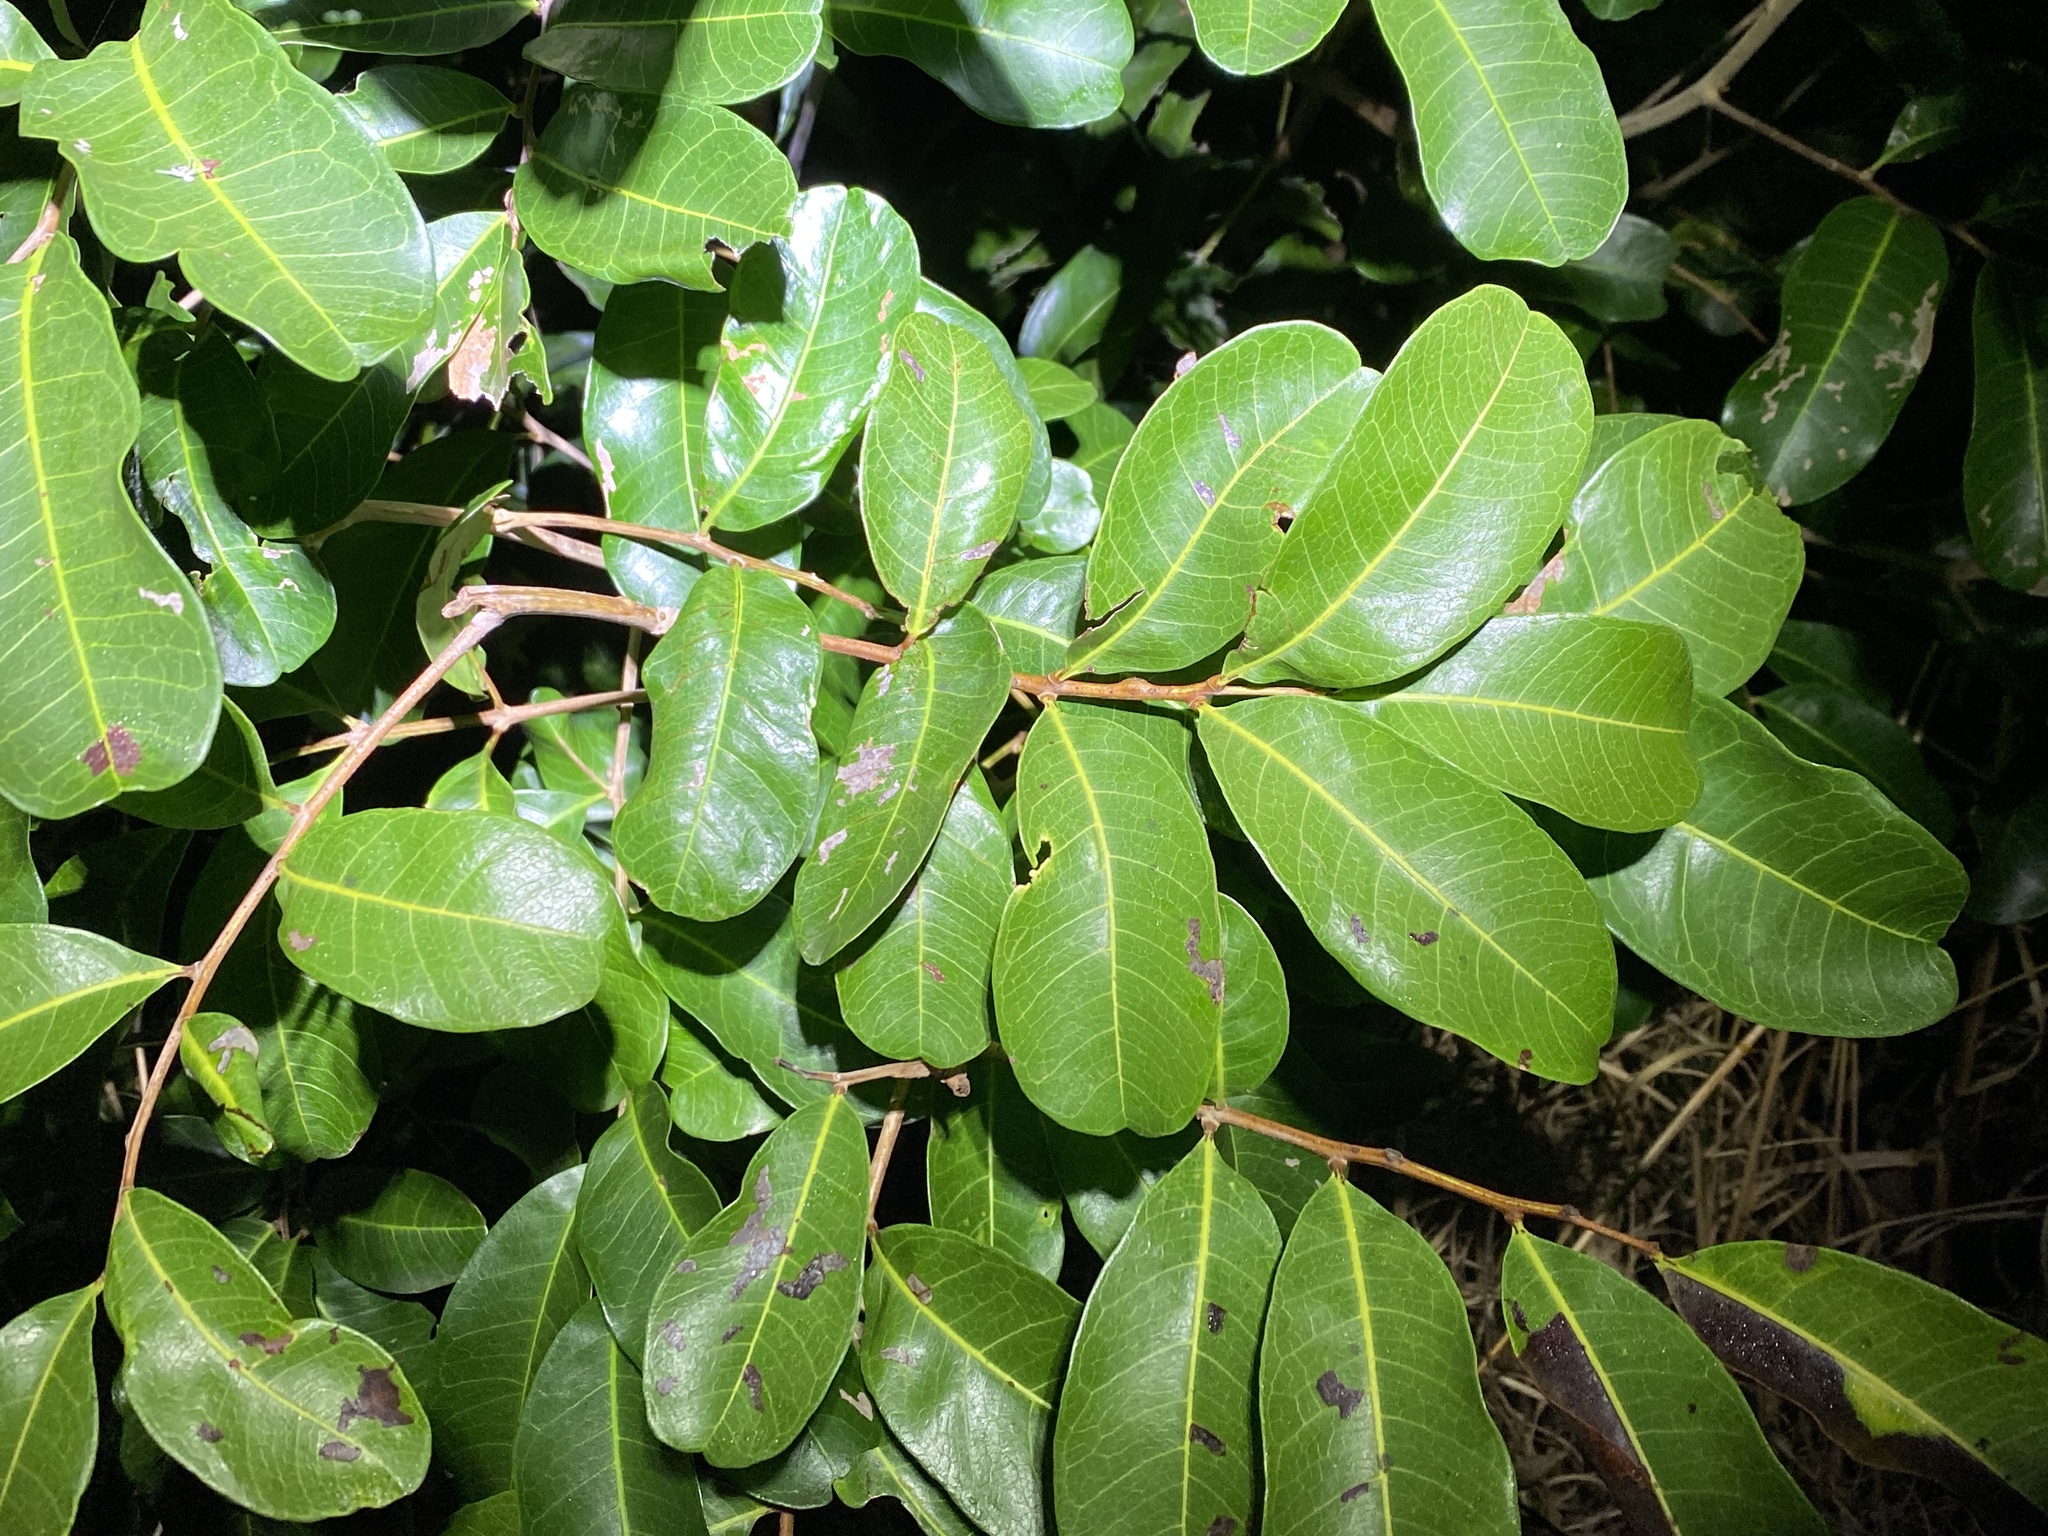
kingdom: Plantae
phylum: Tracheophyta
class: Magnoliopsida
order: Sapindales
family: Sapindaceae
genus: Cupaniopsis
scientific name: Cupaniopsis anacardioides
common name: Carrotwood
